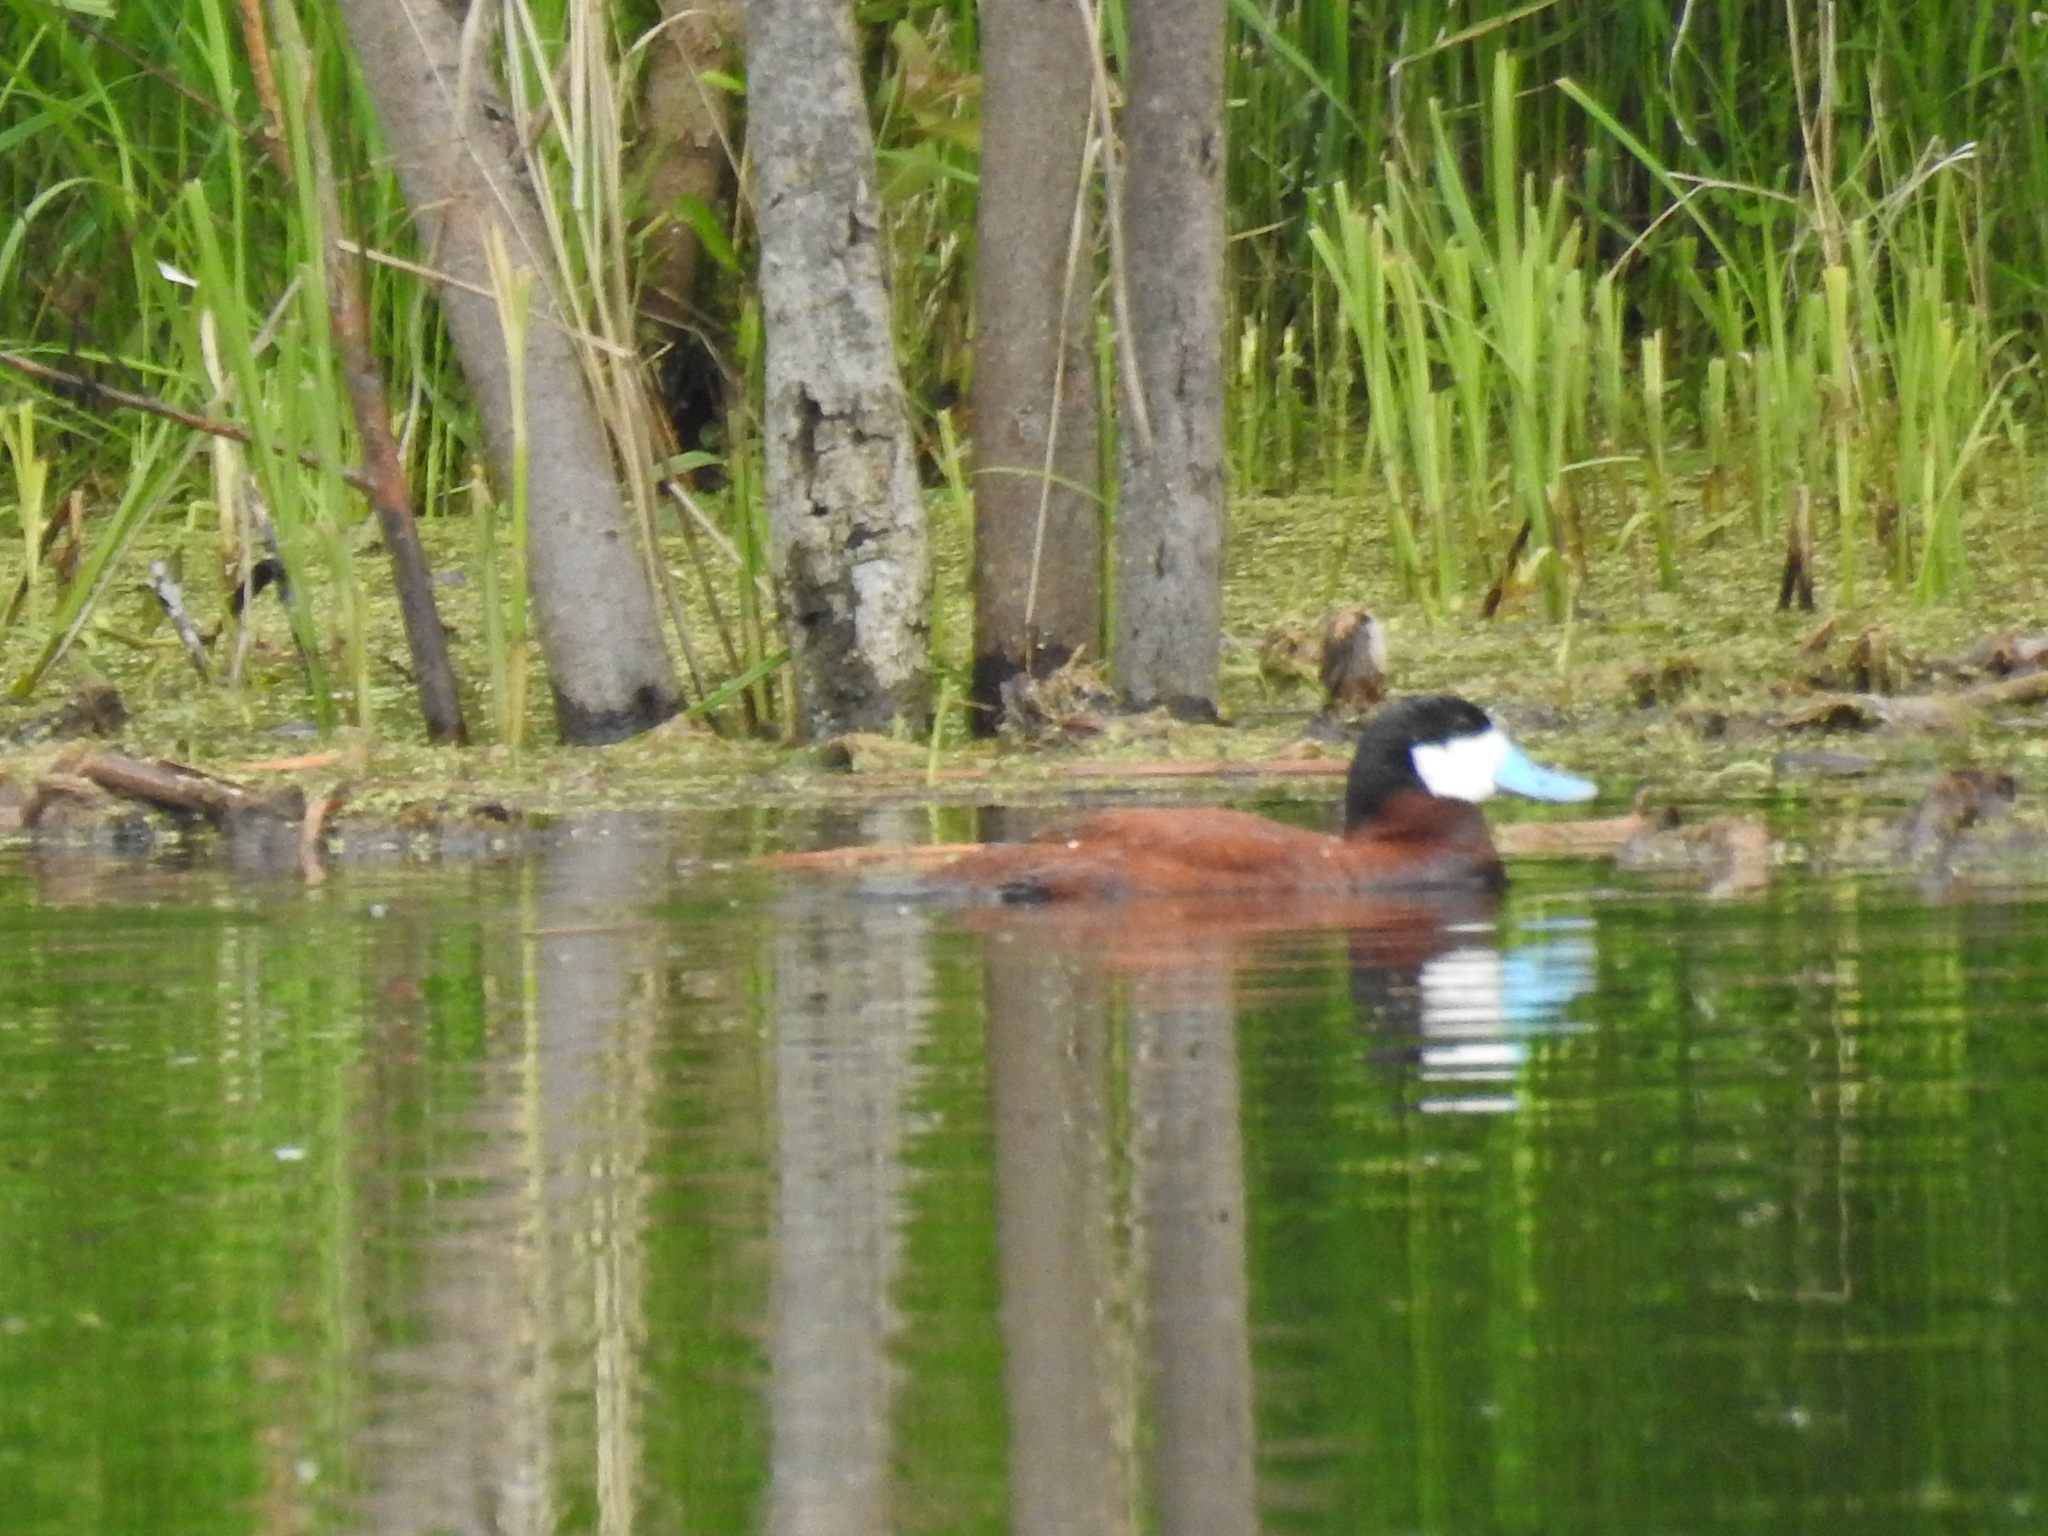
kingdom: Animalia
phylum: Chordata
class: Aves
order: Anseriformes
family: Anatidae
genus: Oxyura
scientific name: Oxyura jamaicensis
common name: Ruddy duck
